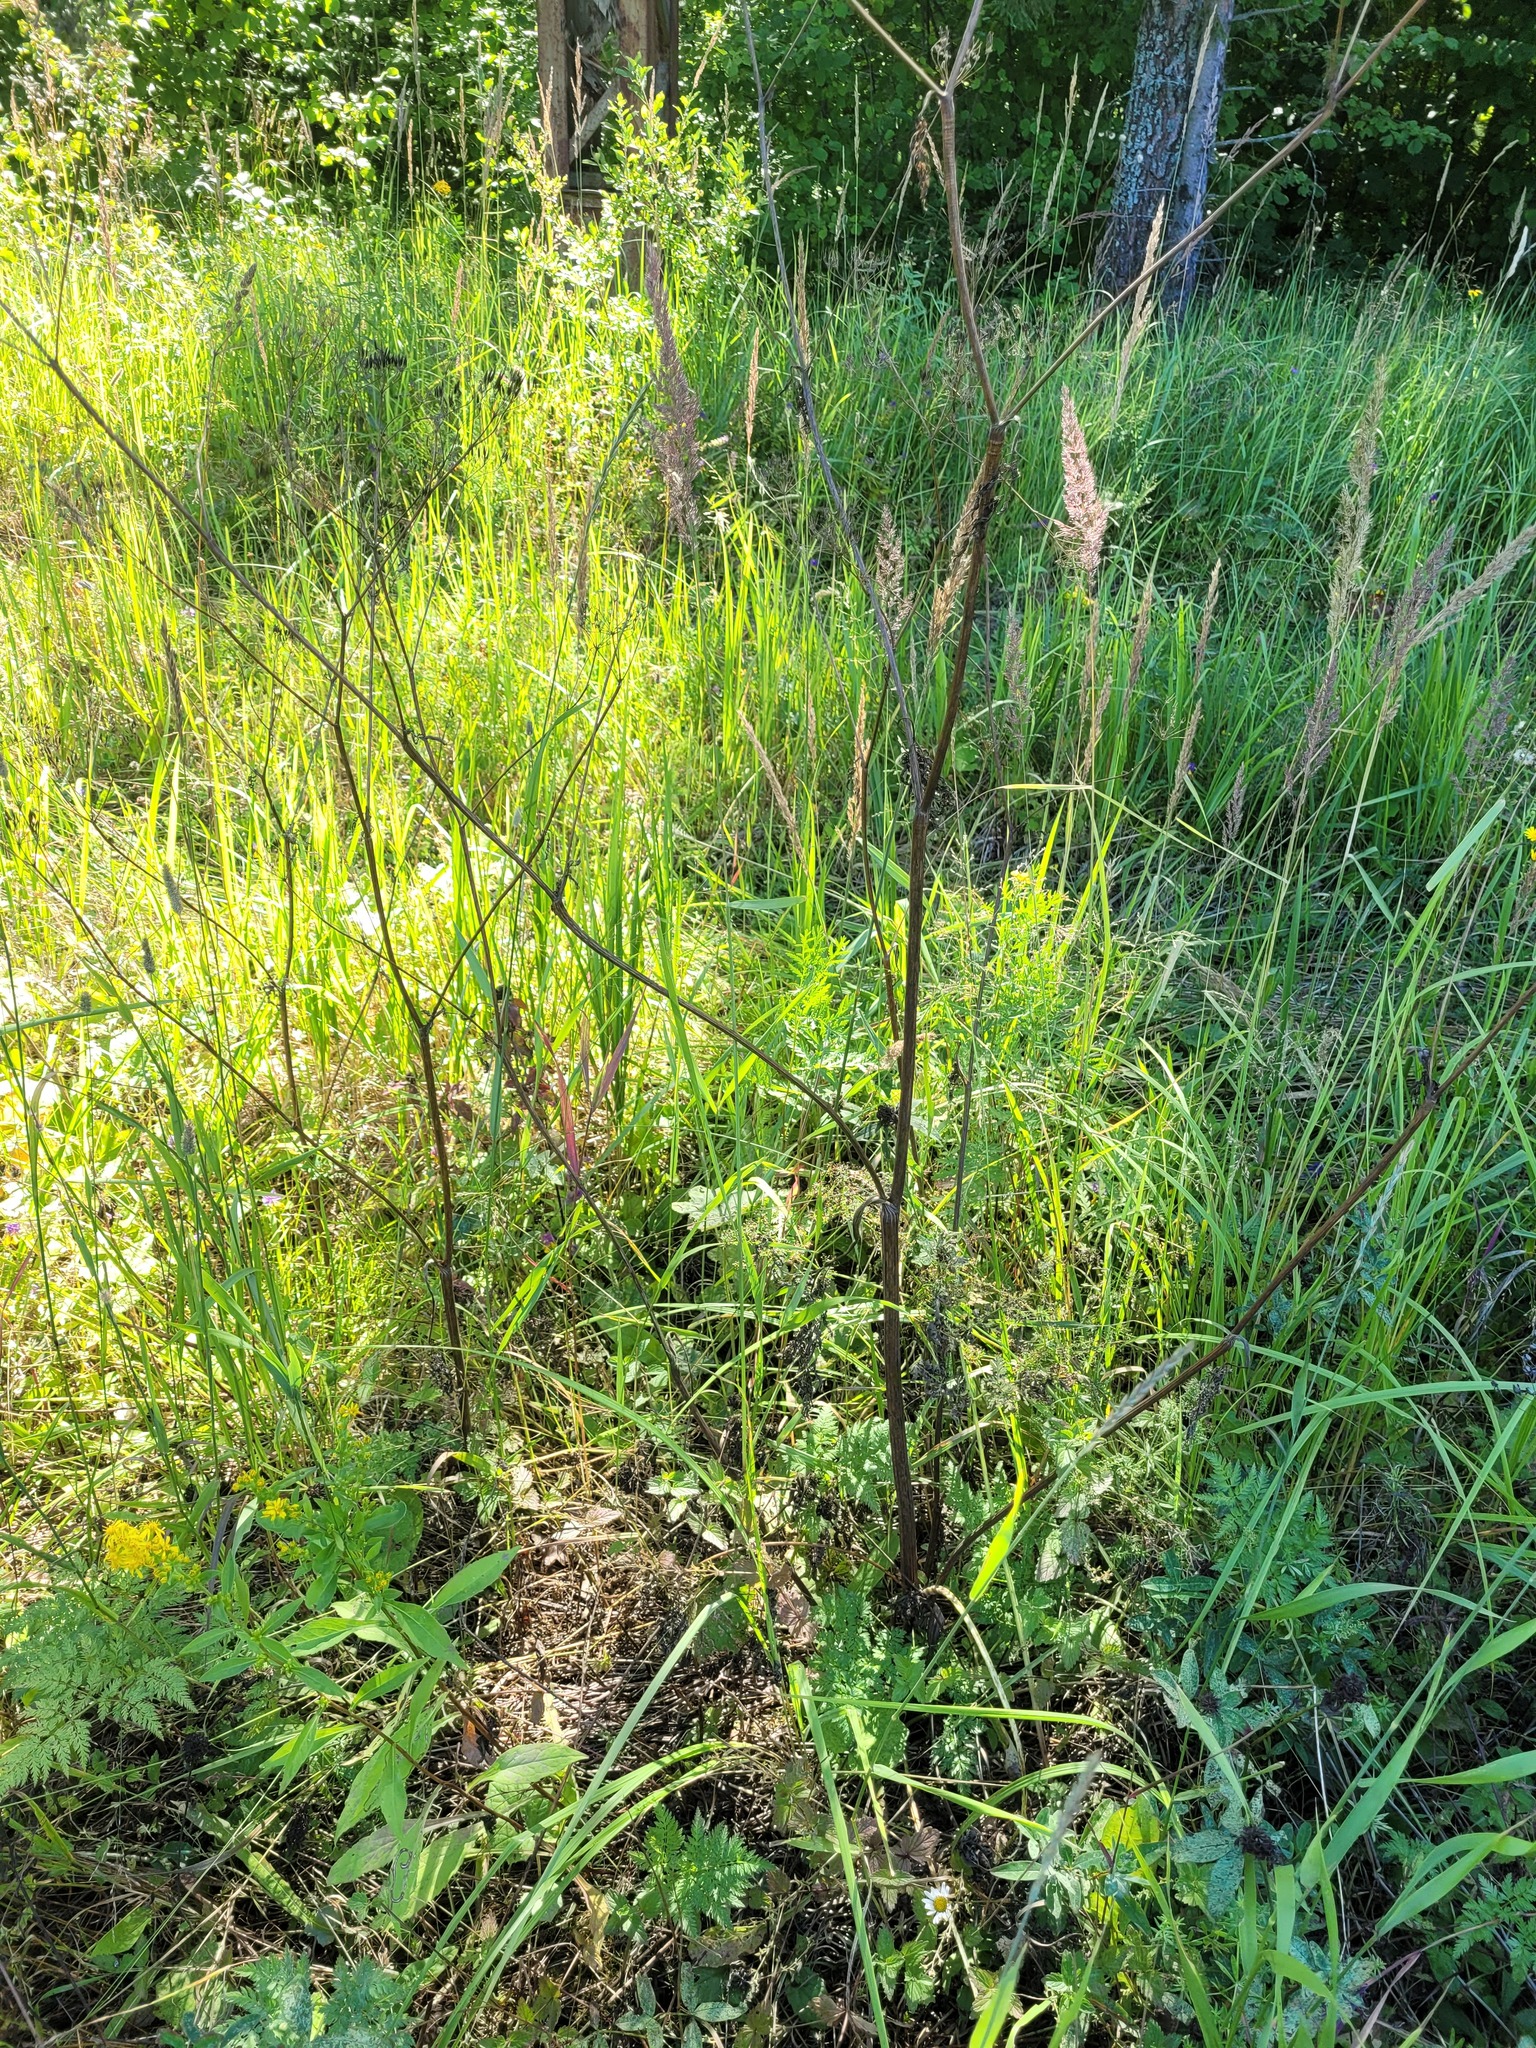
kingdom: Plantae
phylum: Tracheophyta
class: Magnoliopsida
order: Apiales
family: Apiaceae
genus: Anthriscus
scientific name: Anthriscus sylvestris
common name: Cow parsley
